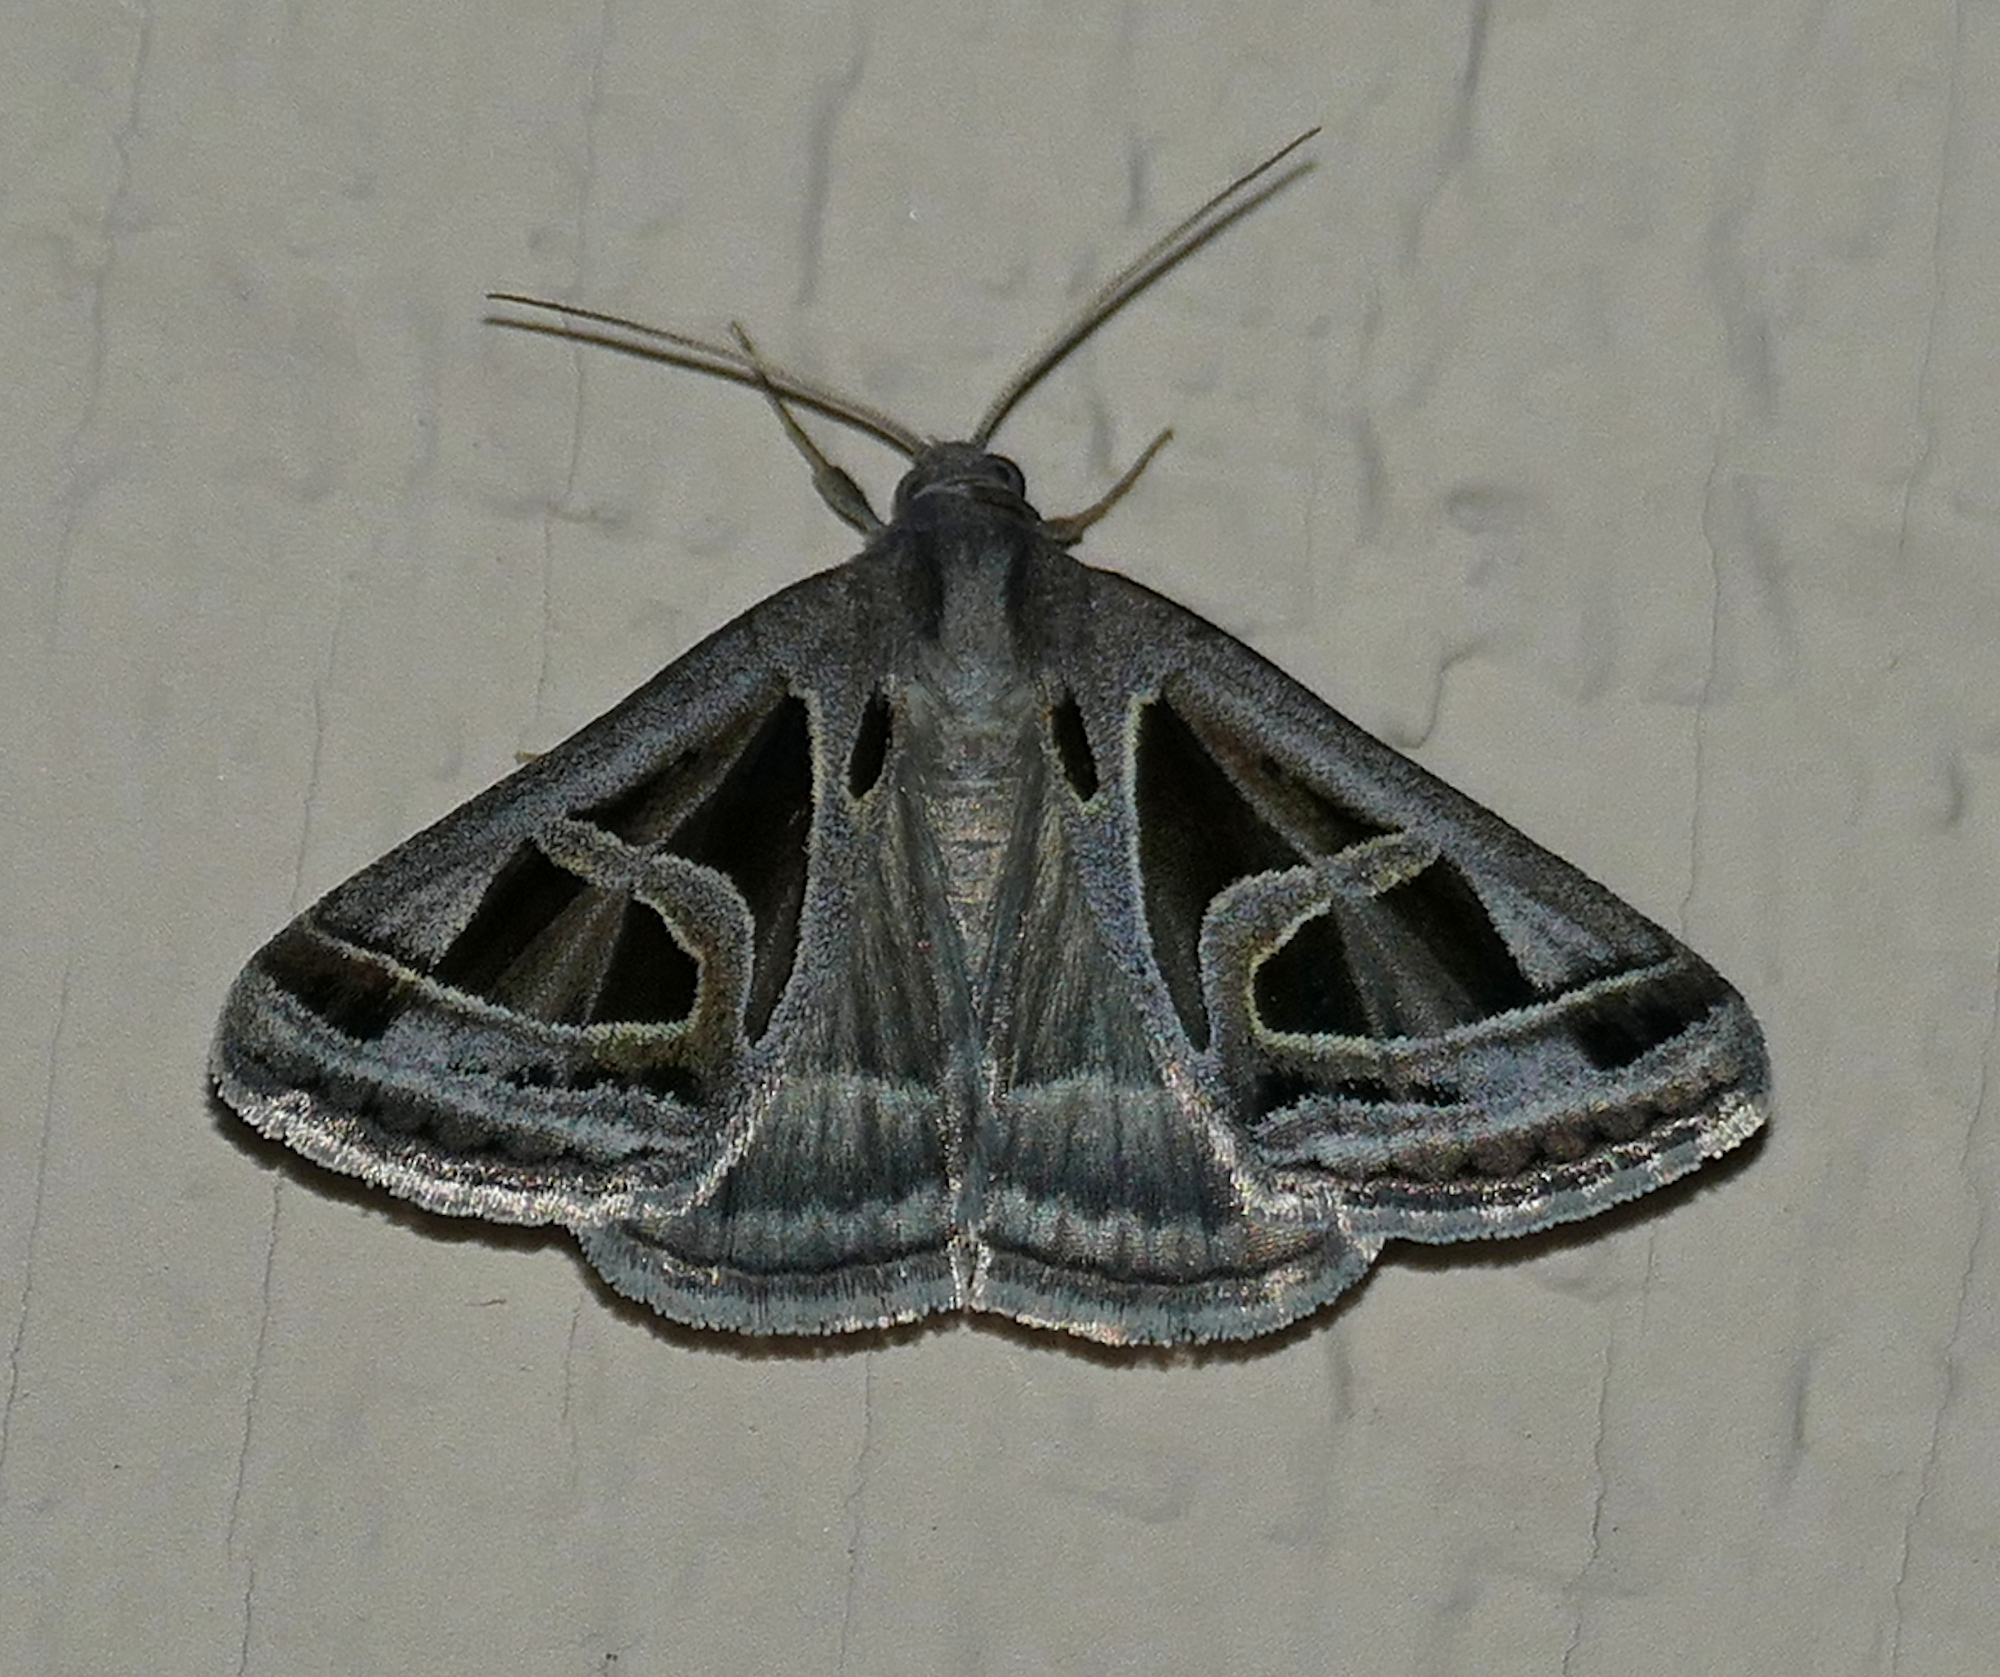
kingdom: Animalia
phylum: Arthropoda
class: Insecta
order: Lepidoptera
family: Erebidae
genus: Callistege
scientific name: Callistege intercalaris
